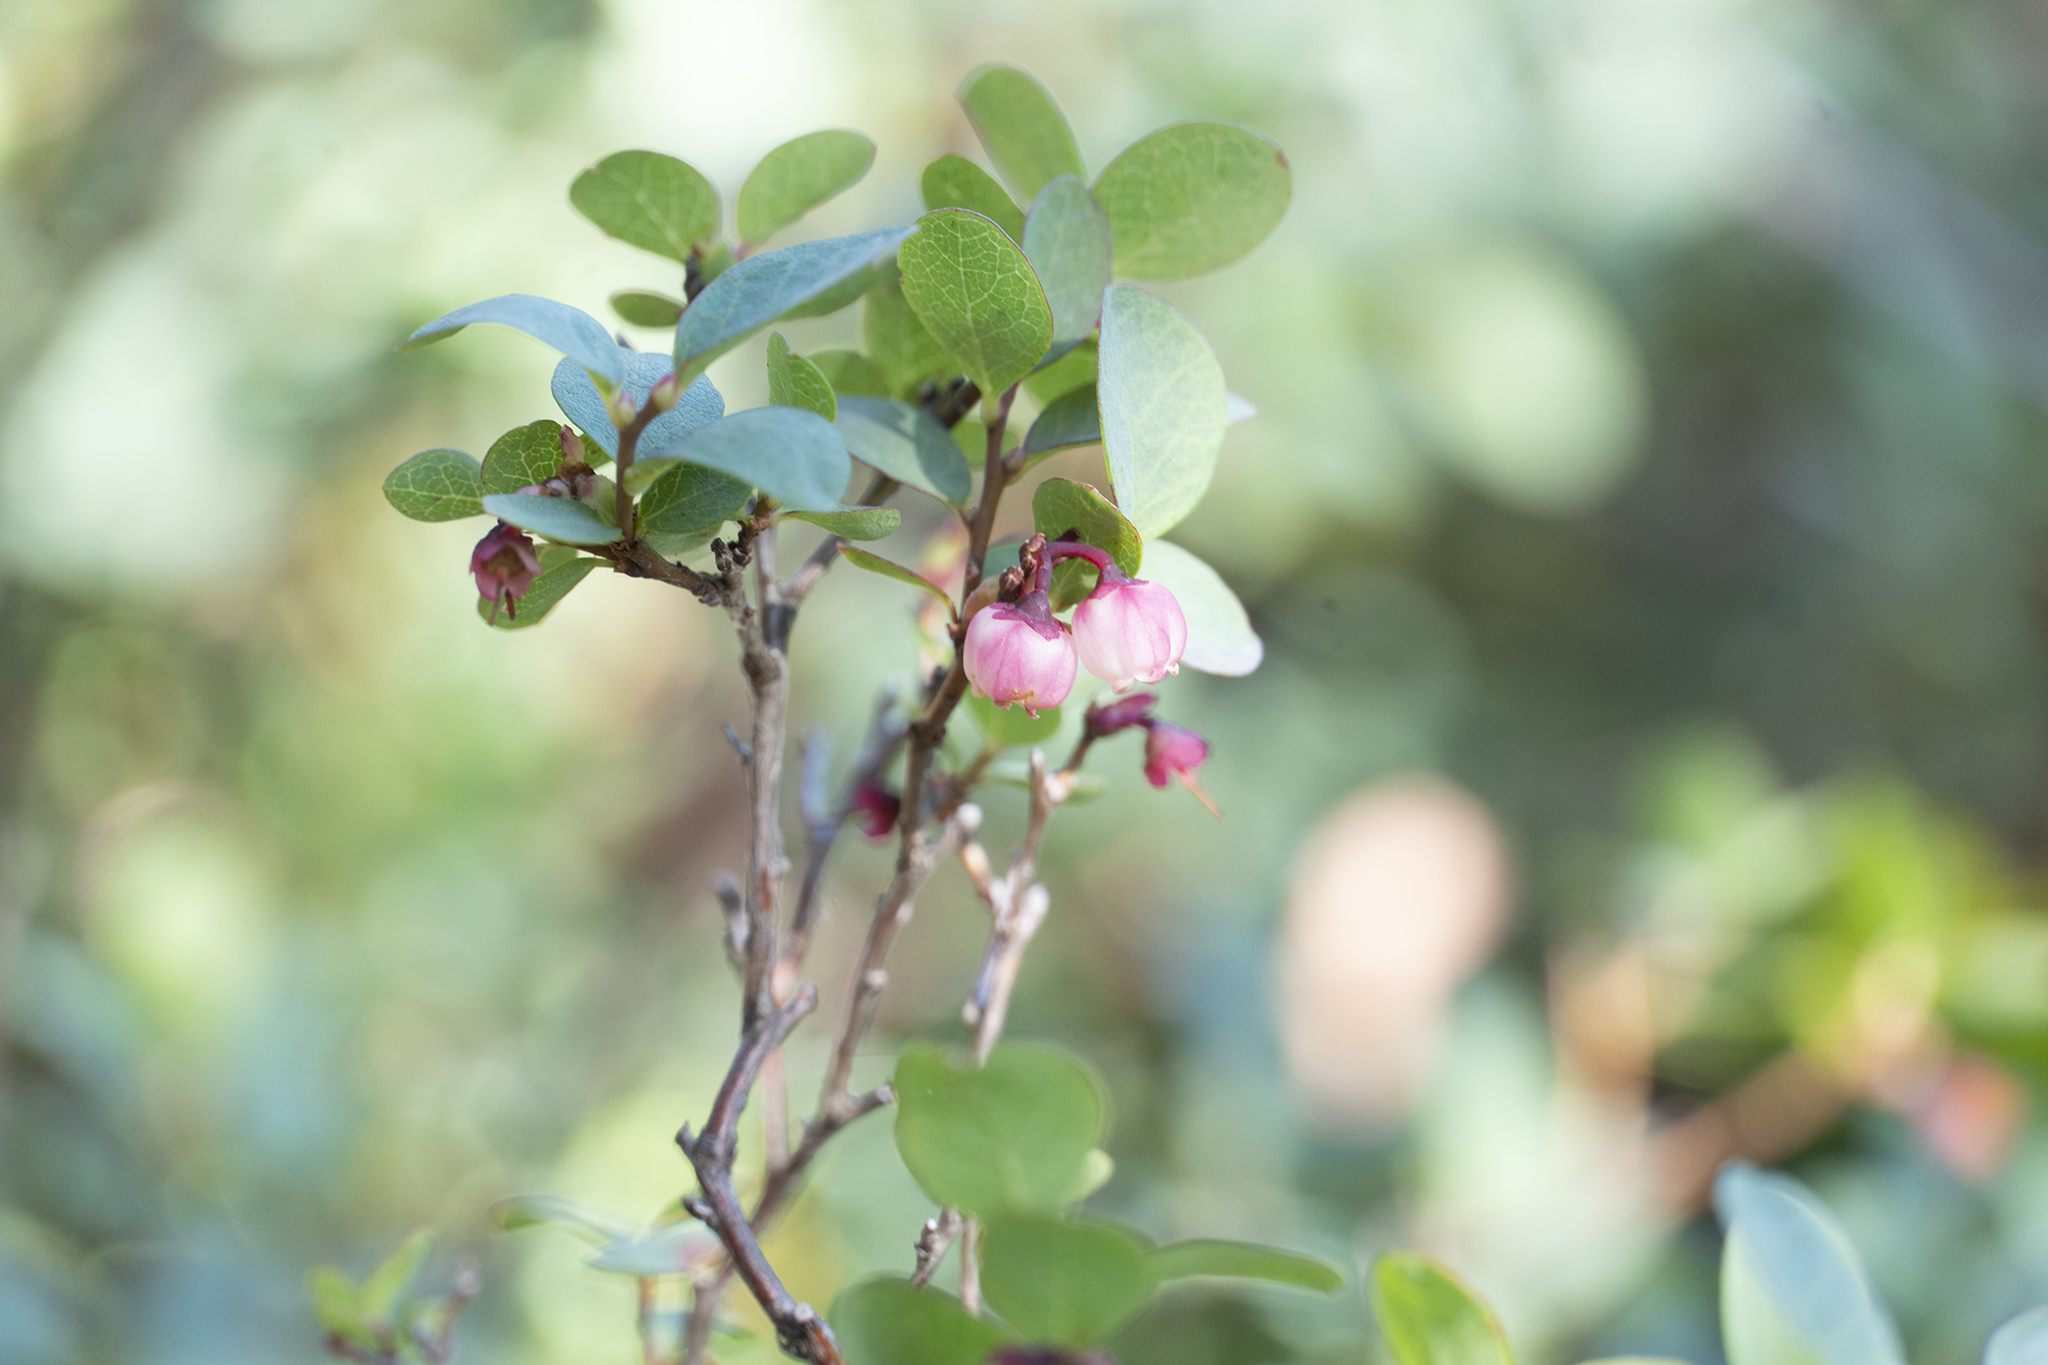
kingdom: Plantae
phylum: Tracheophyta
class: Magnoliopsida
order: Ericales
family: Ericaceae
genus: Vaccinium
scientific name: Vaccinium uliginosum
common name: Bog bilberry
